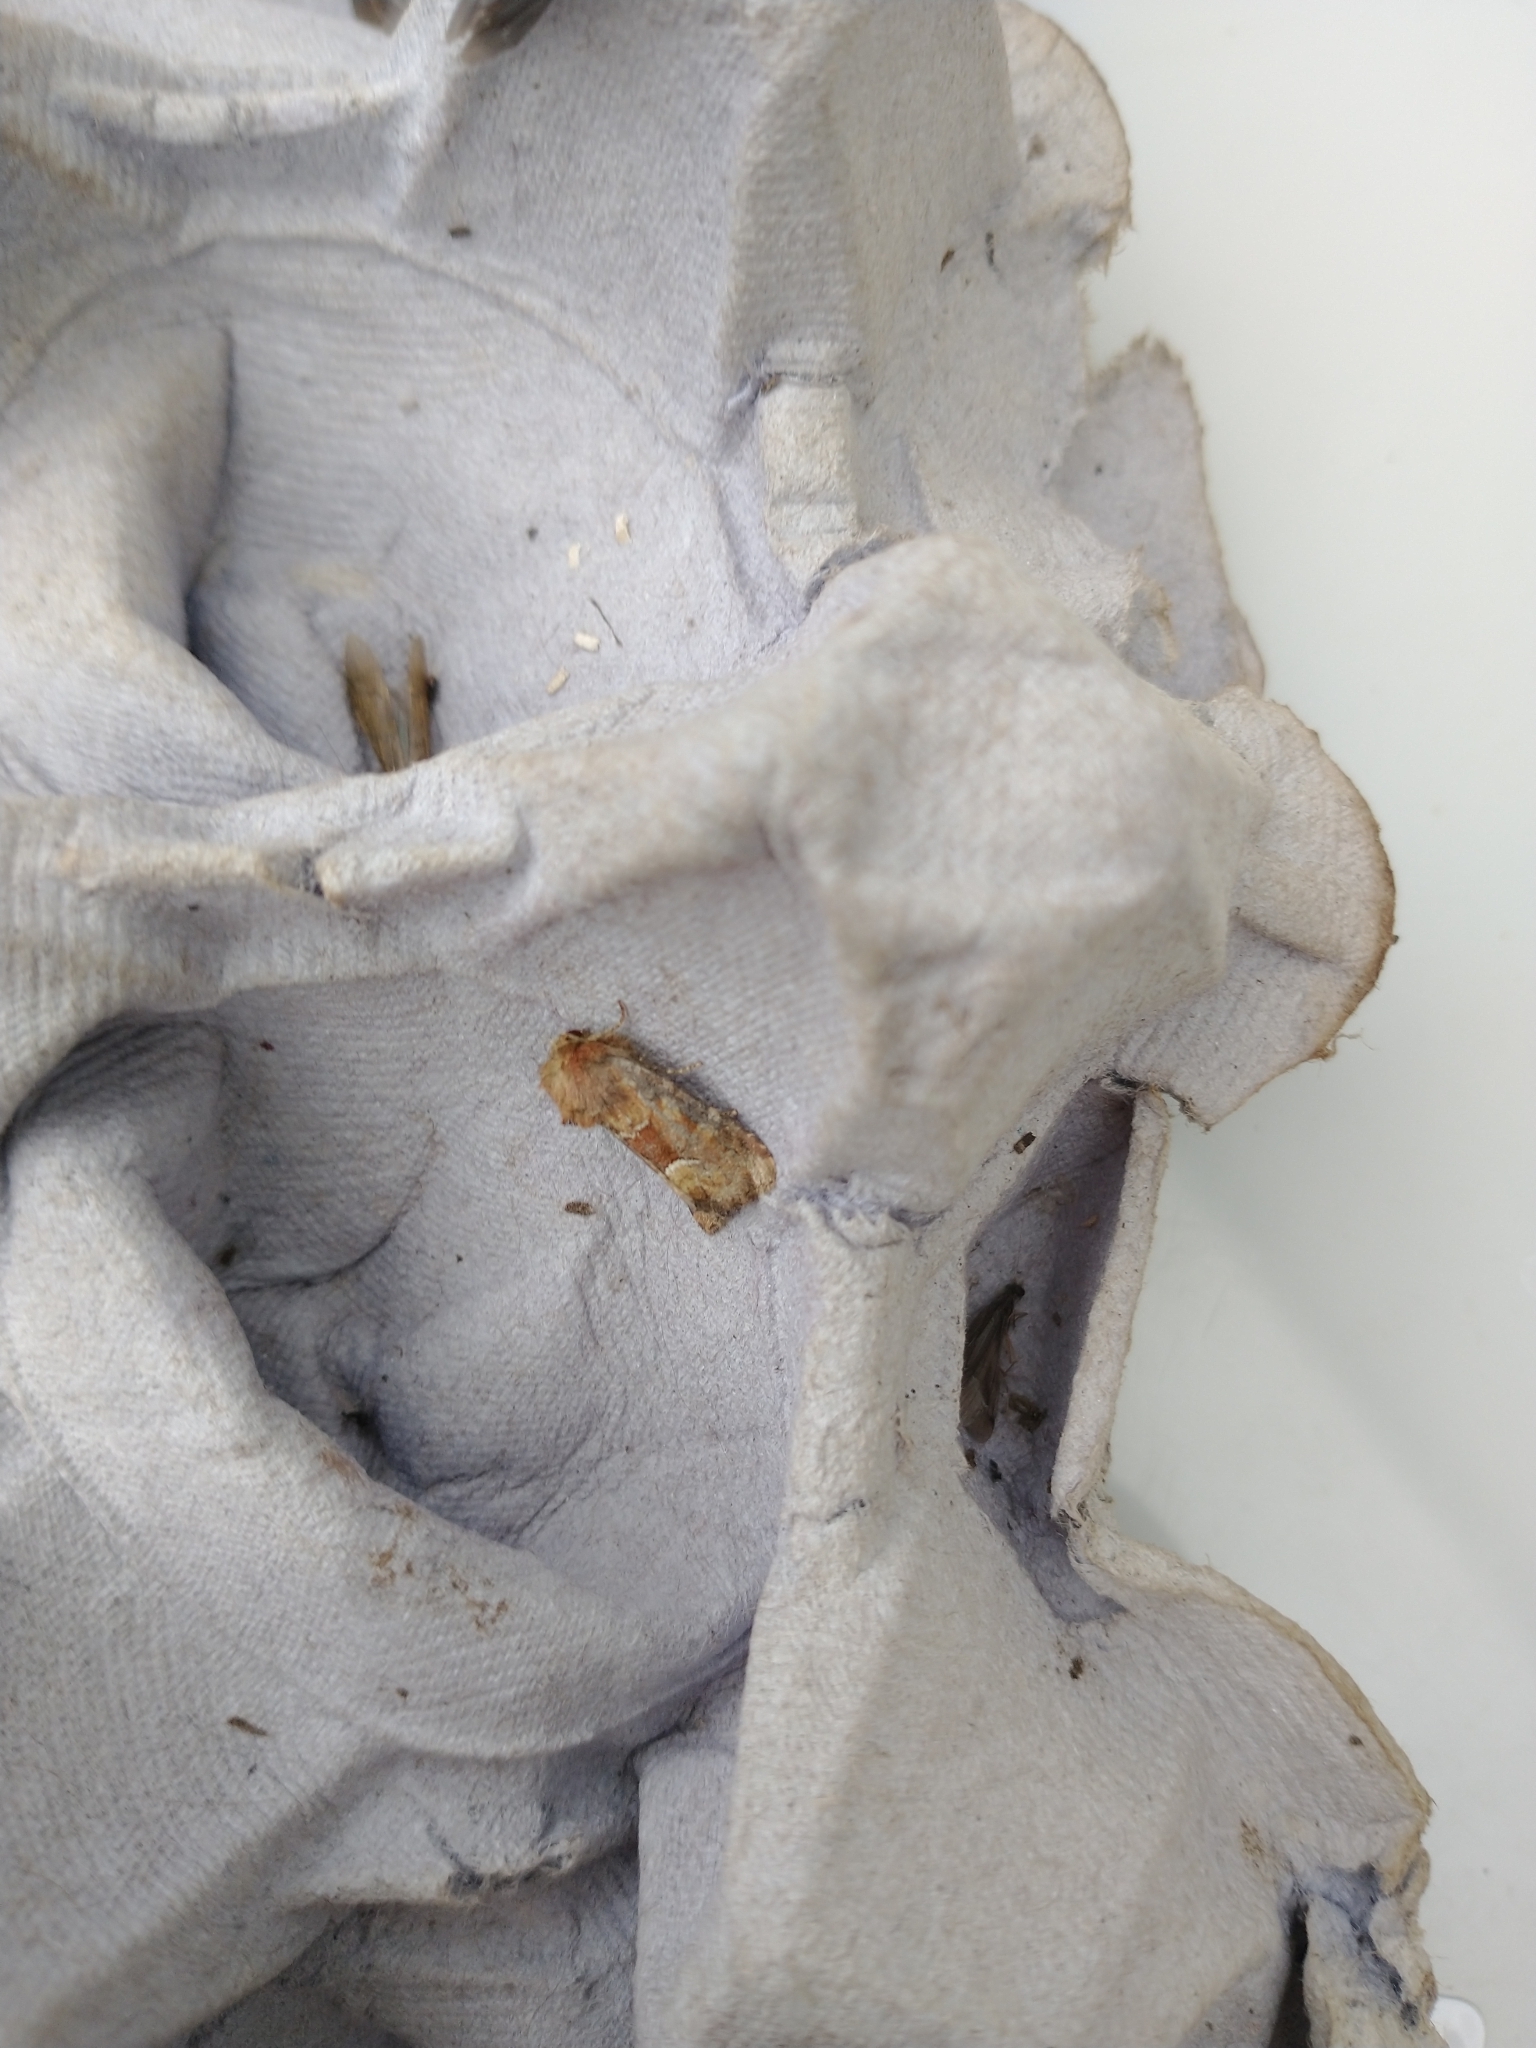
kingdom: Animalia
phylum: Arthropoda
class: Insecta
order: Lepidoptera
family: Noctuidae
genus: Oligia
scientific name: Oligia fasciuncula
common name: Middle-barred minor
